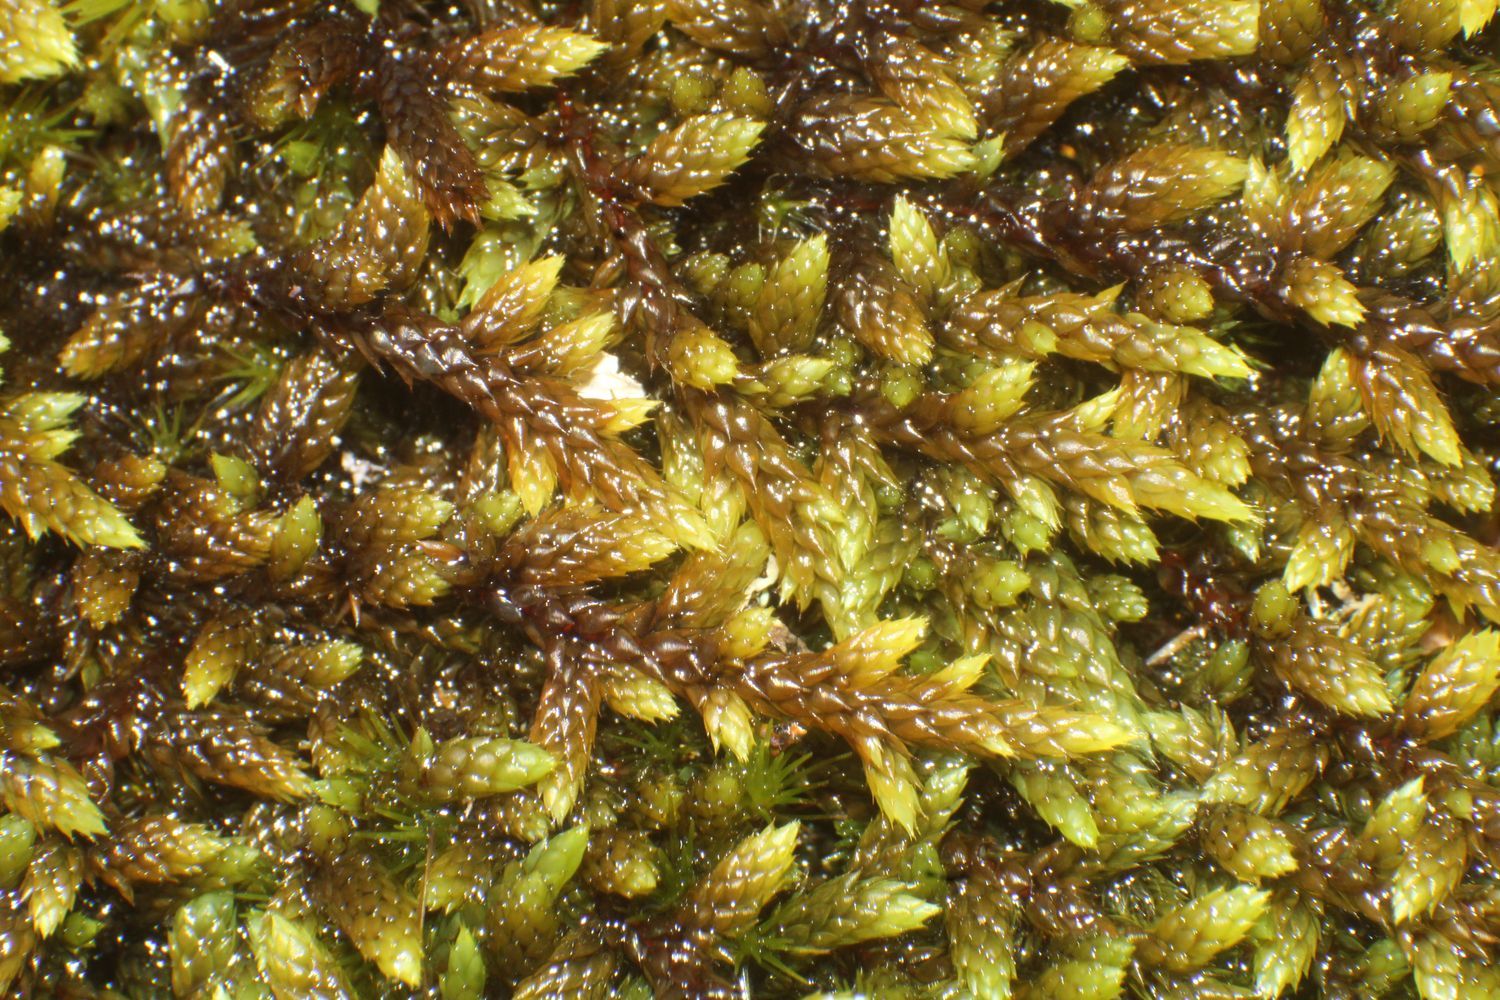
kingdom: Plantae
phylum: Bryophyta
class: Bryopsida
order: Hedwigiales
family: Hedwigiaceae
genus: Rhacocarpus
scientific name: Rhacocarpus purpurascens
